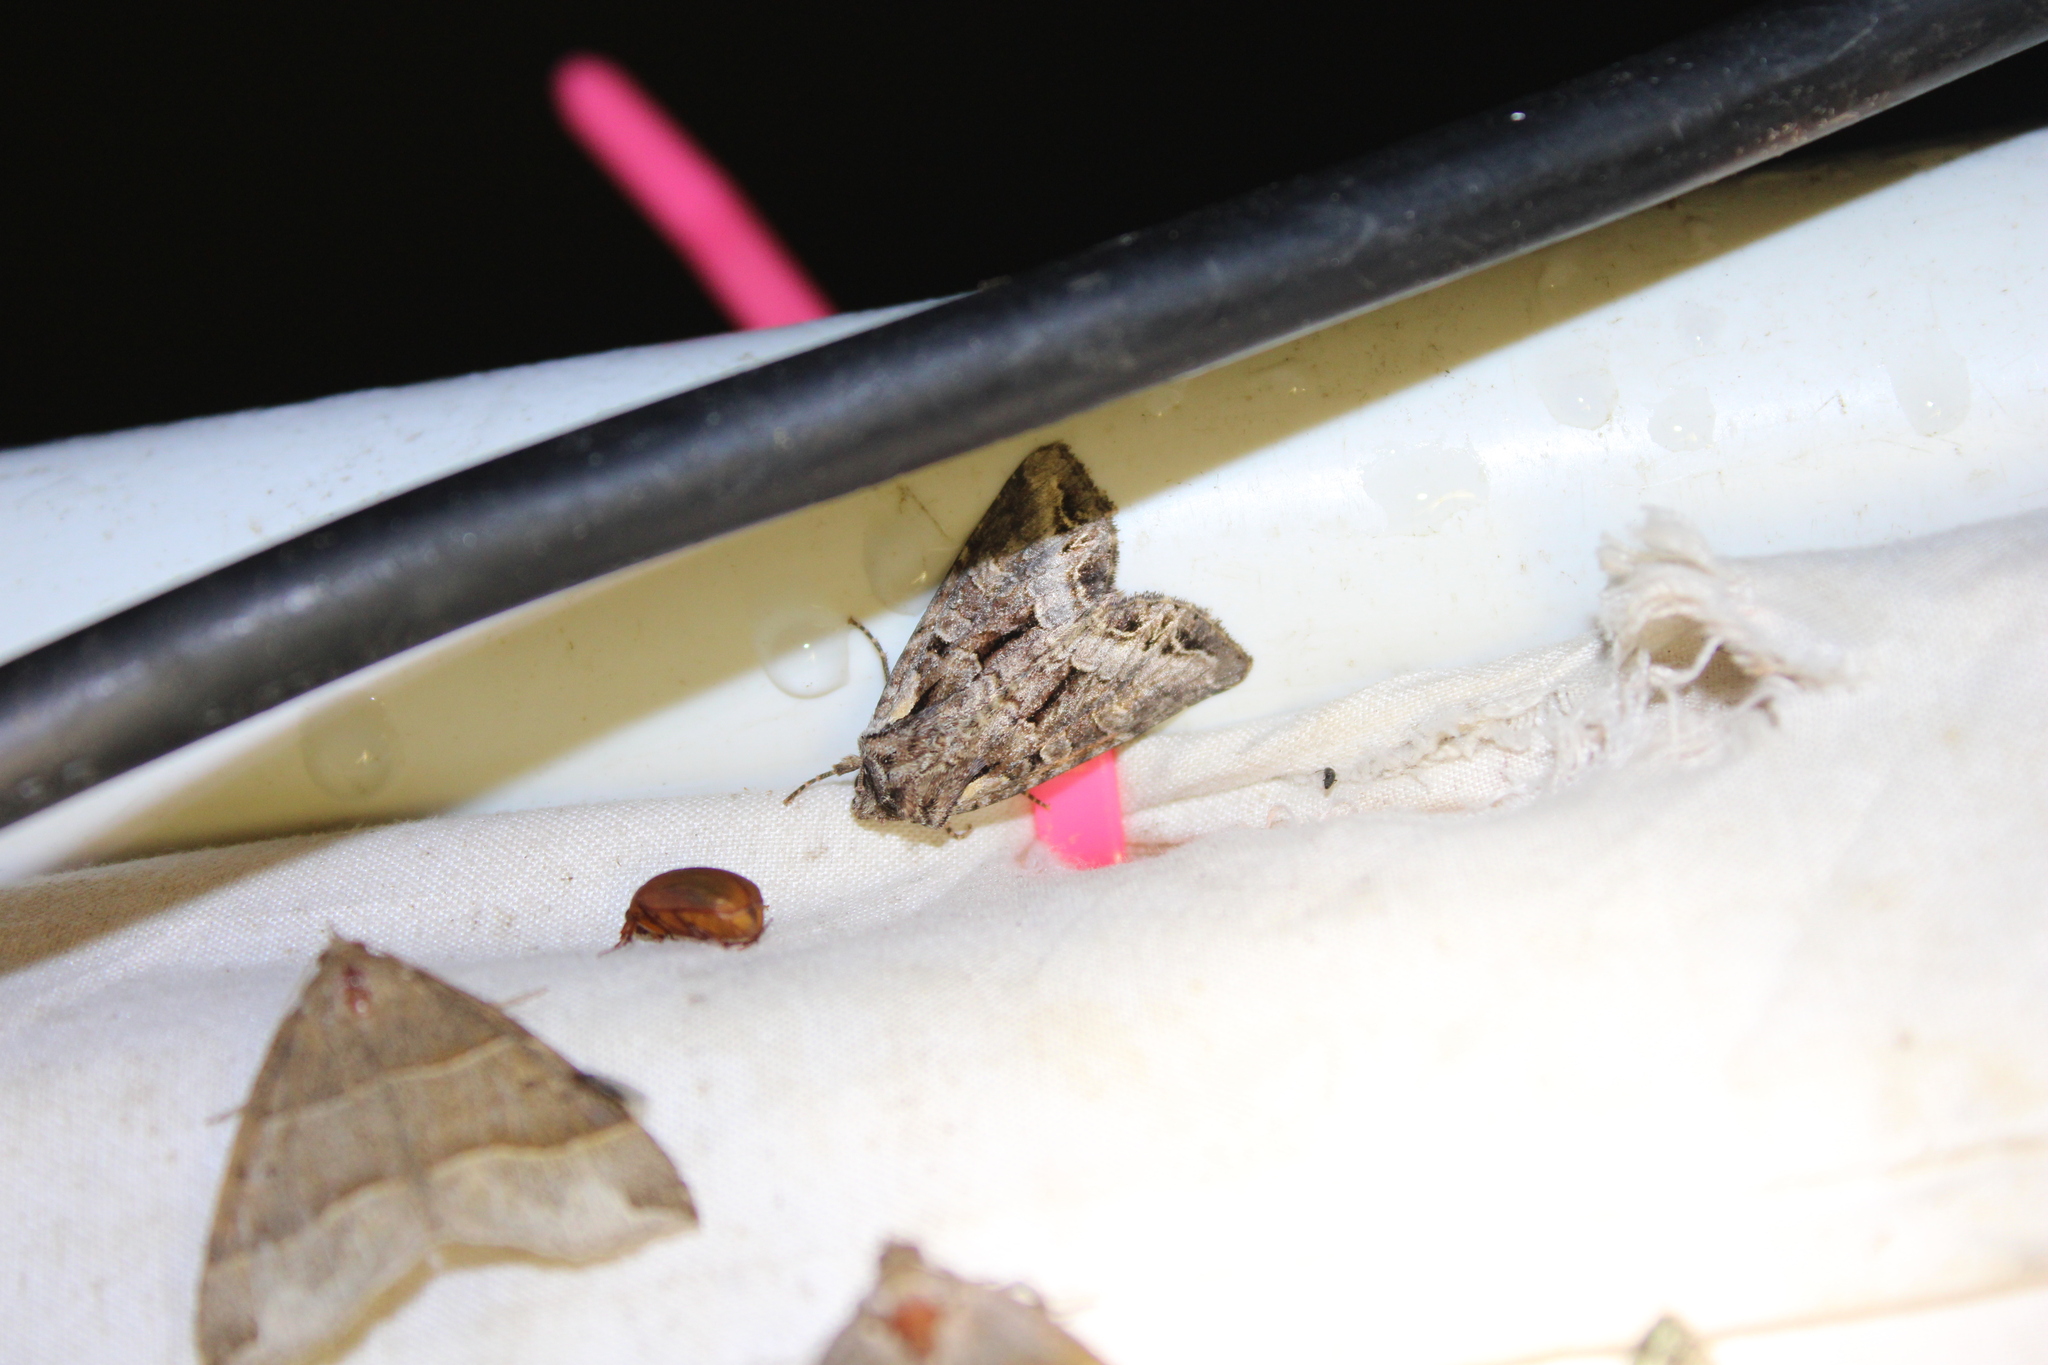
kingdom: Animalia
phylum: Arthropoda
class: Insecta
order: Lepidoptera
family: Noctuidae
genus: Lacanobia
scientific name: Lacanobia grandis
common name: Grand arches moth
